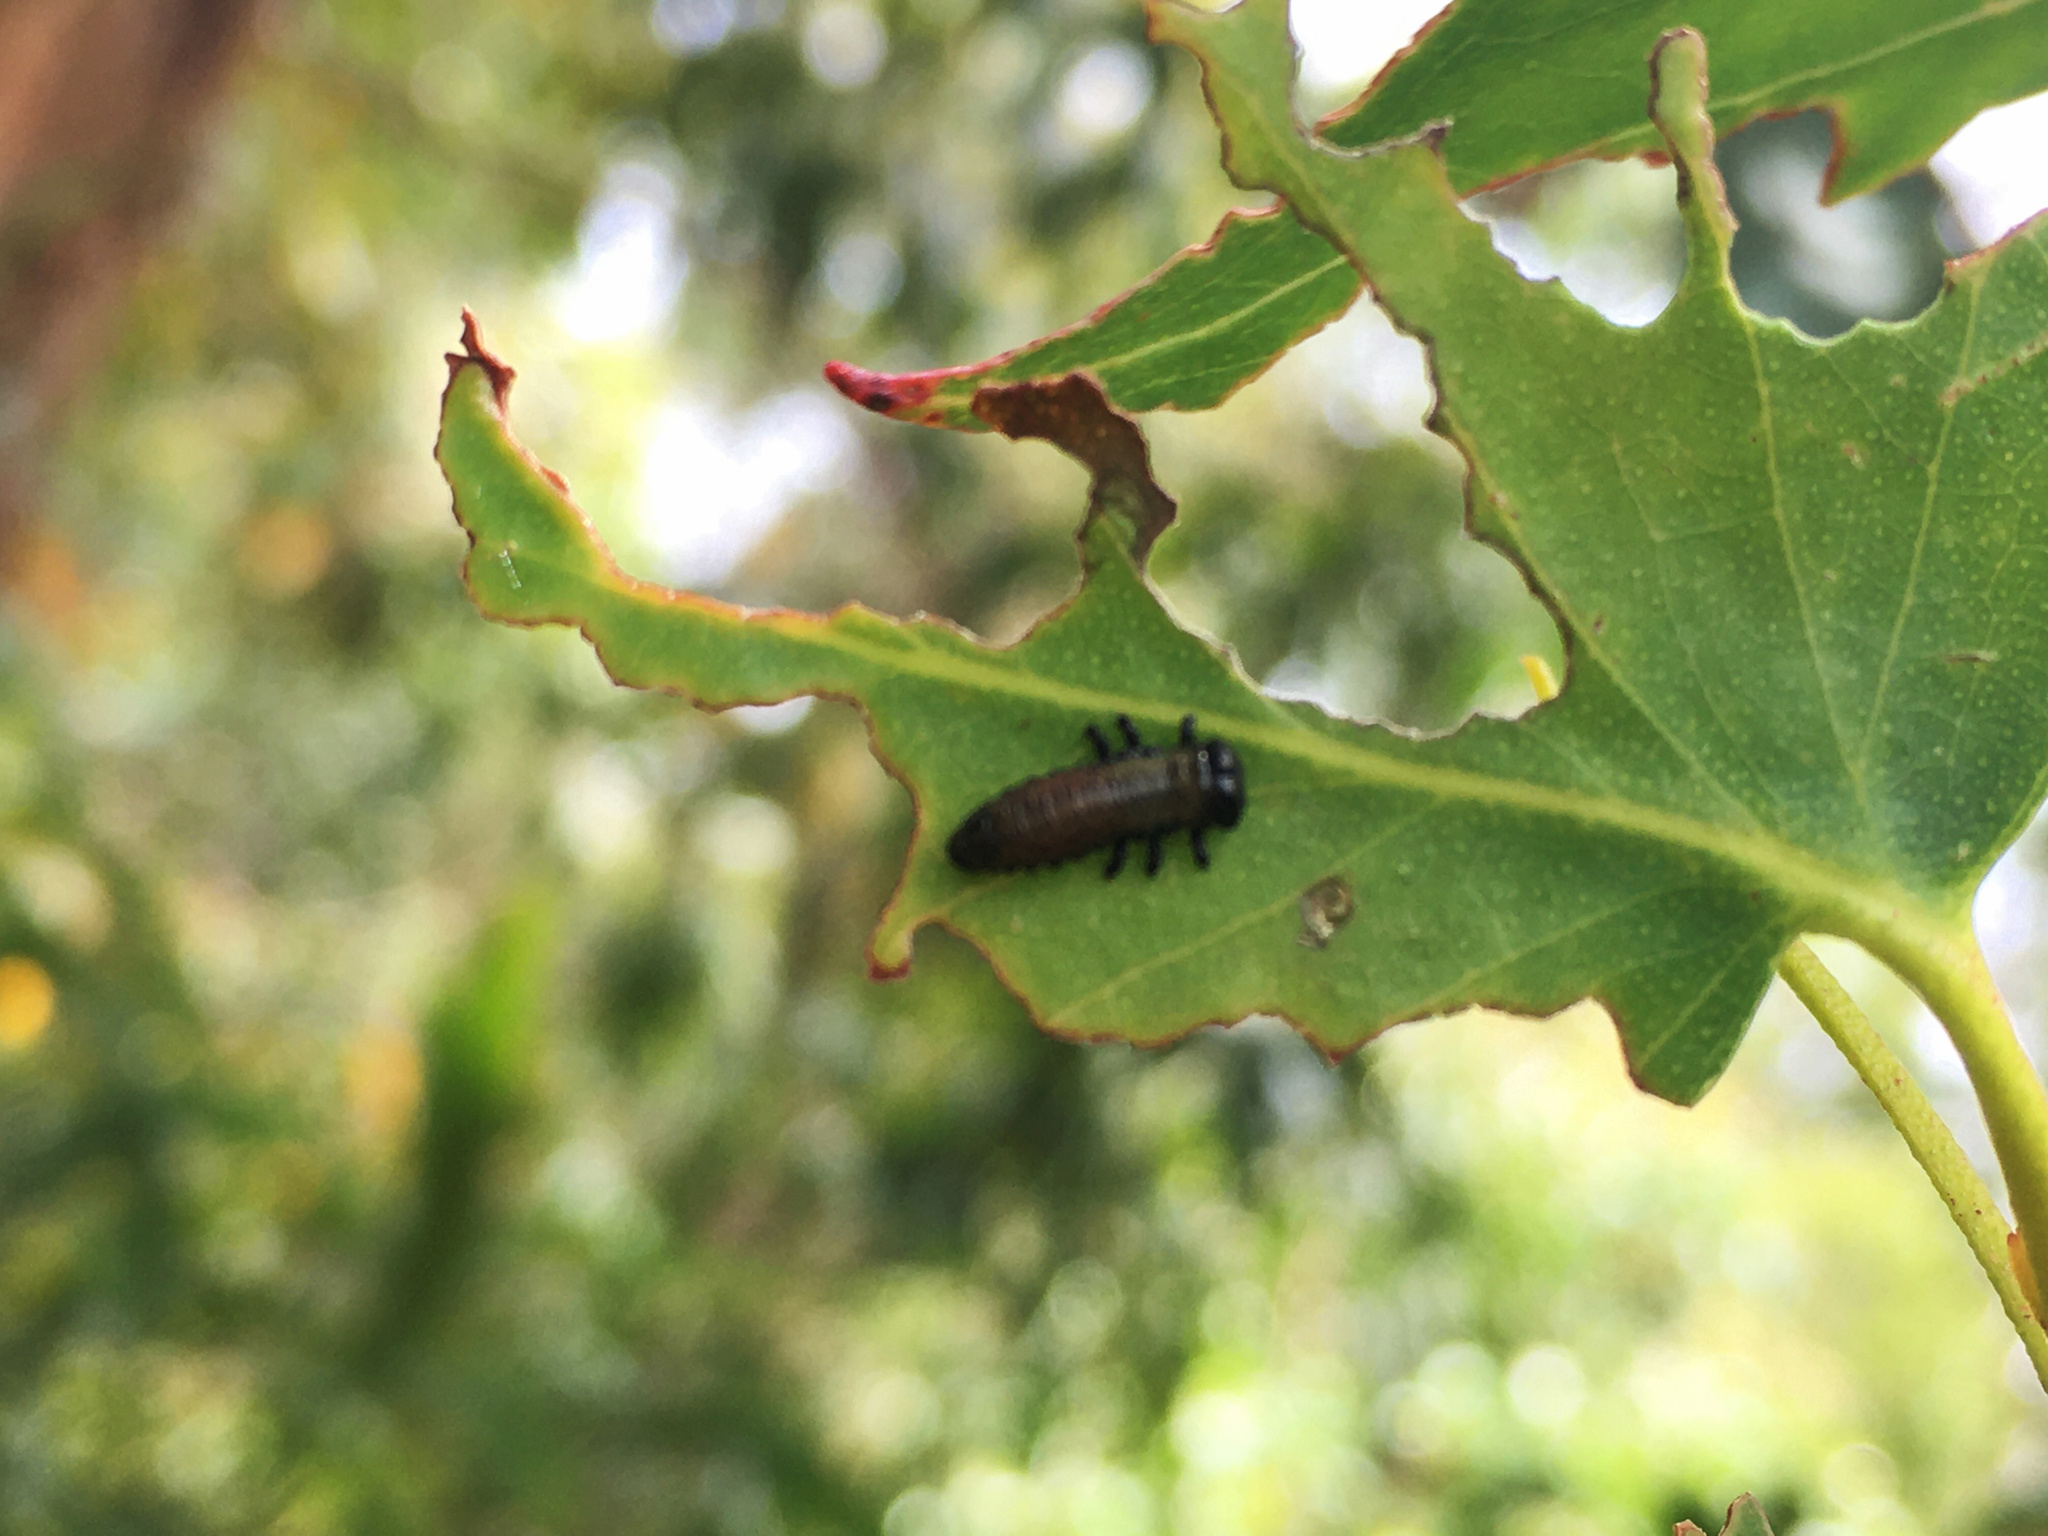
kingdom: Animalia
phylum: Arthropoda
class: Insecta
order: Coleoptera
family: Chrysomelidae
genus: Paropsis
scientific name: Paropsis charybdis
